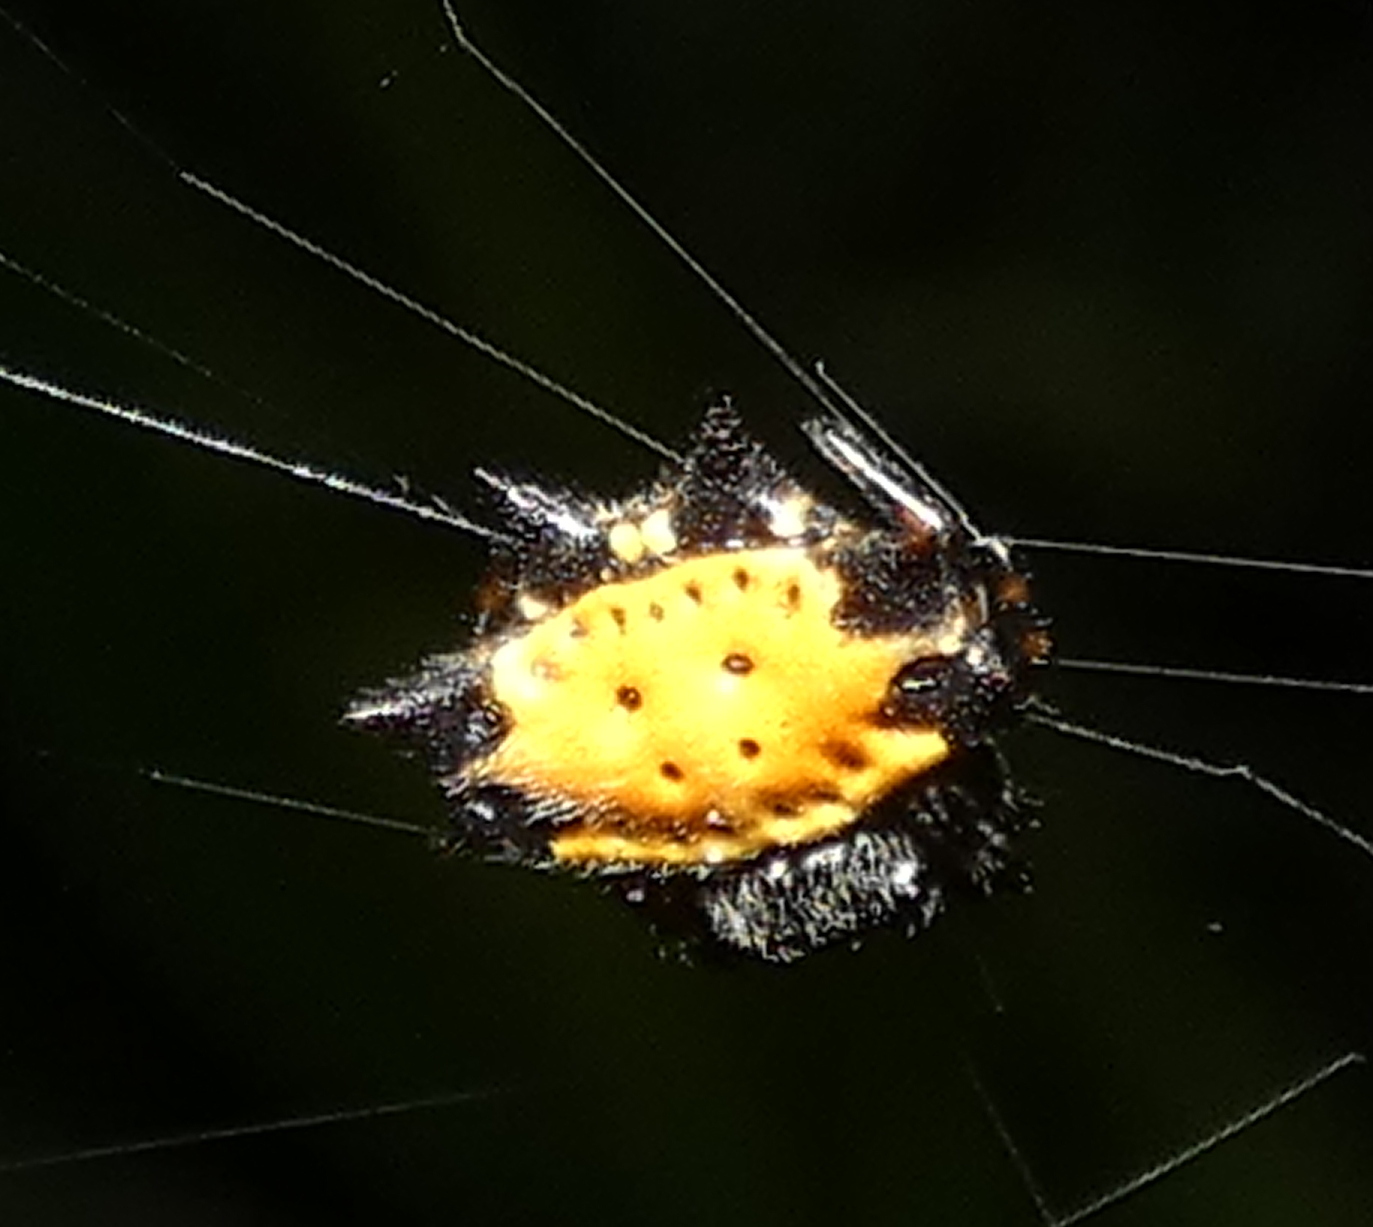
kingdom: Animalia
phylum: Arthropoda
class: Arachnida
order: Araneae
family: Araneidae
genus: Gasteracantha
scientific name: Gasteracantha cancriformis
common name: Orb weavers
